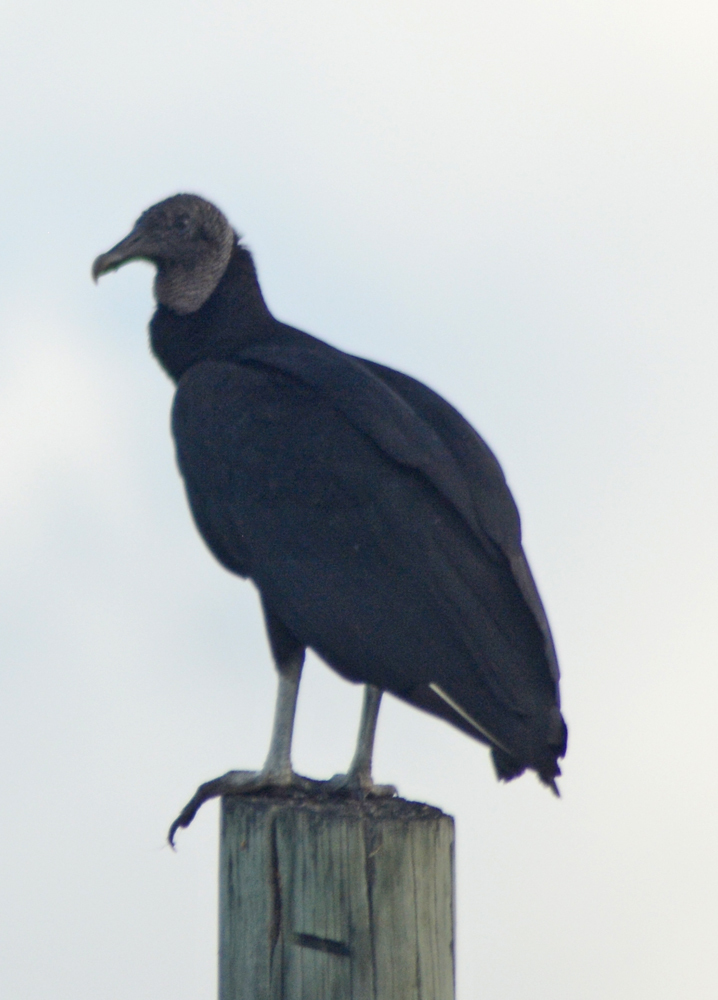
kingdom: Animalia
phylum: Chordata
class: Aves
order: Accipitriformes
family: Cathartidae
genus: Coragyps
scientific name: Coragyps atratus
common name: Black vulture
